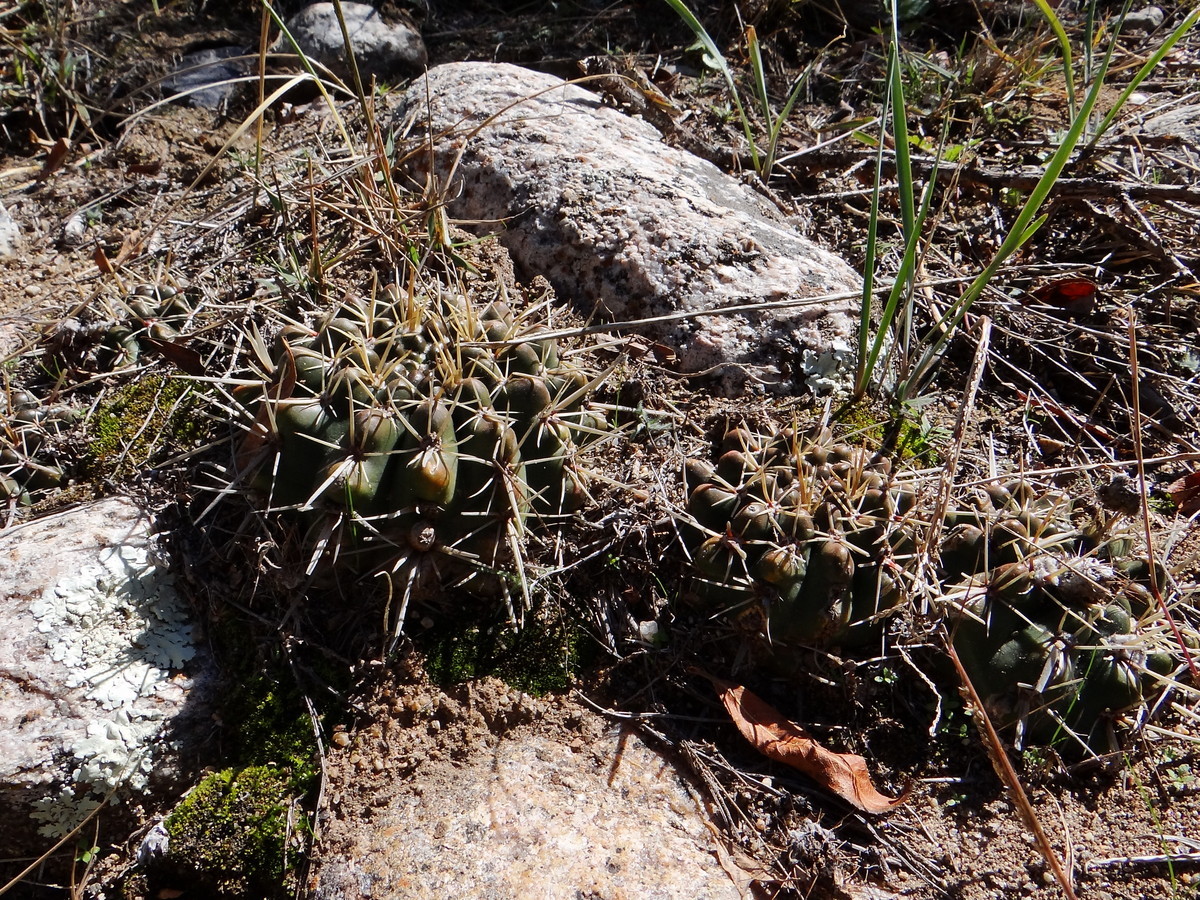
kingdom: Plantae
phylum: Tracheophyta
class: Magnoliopsida
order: Caryophyllales
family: Cactaceae
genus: Parodia
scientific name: Parodia mammulosa
